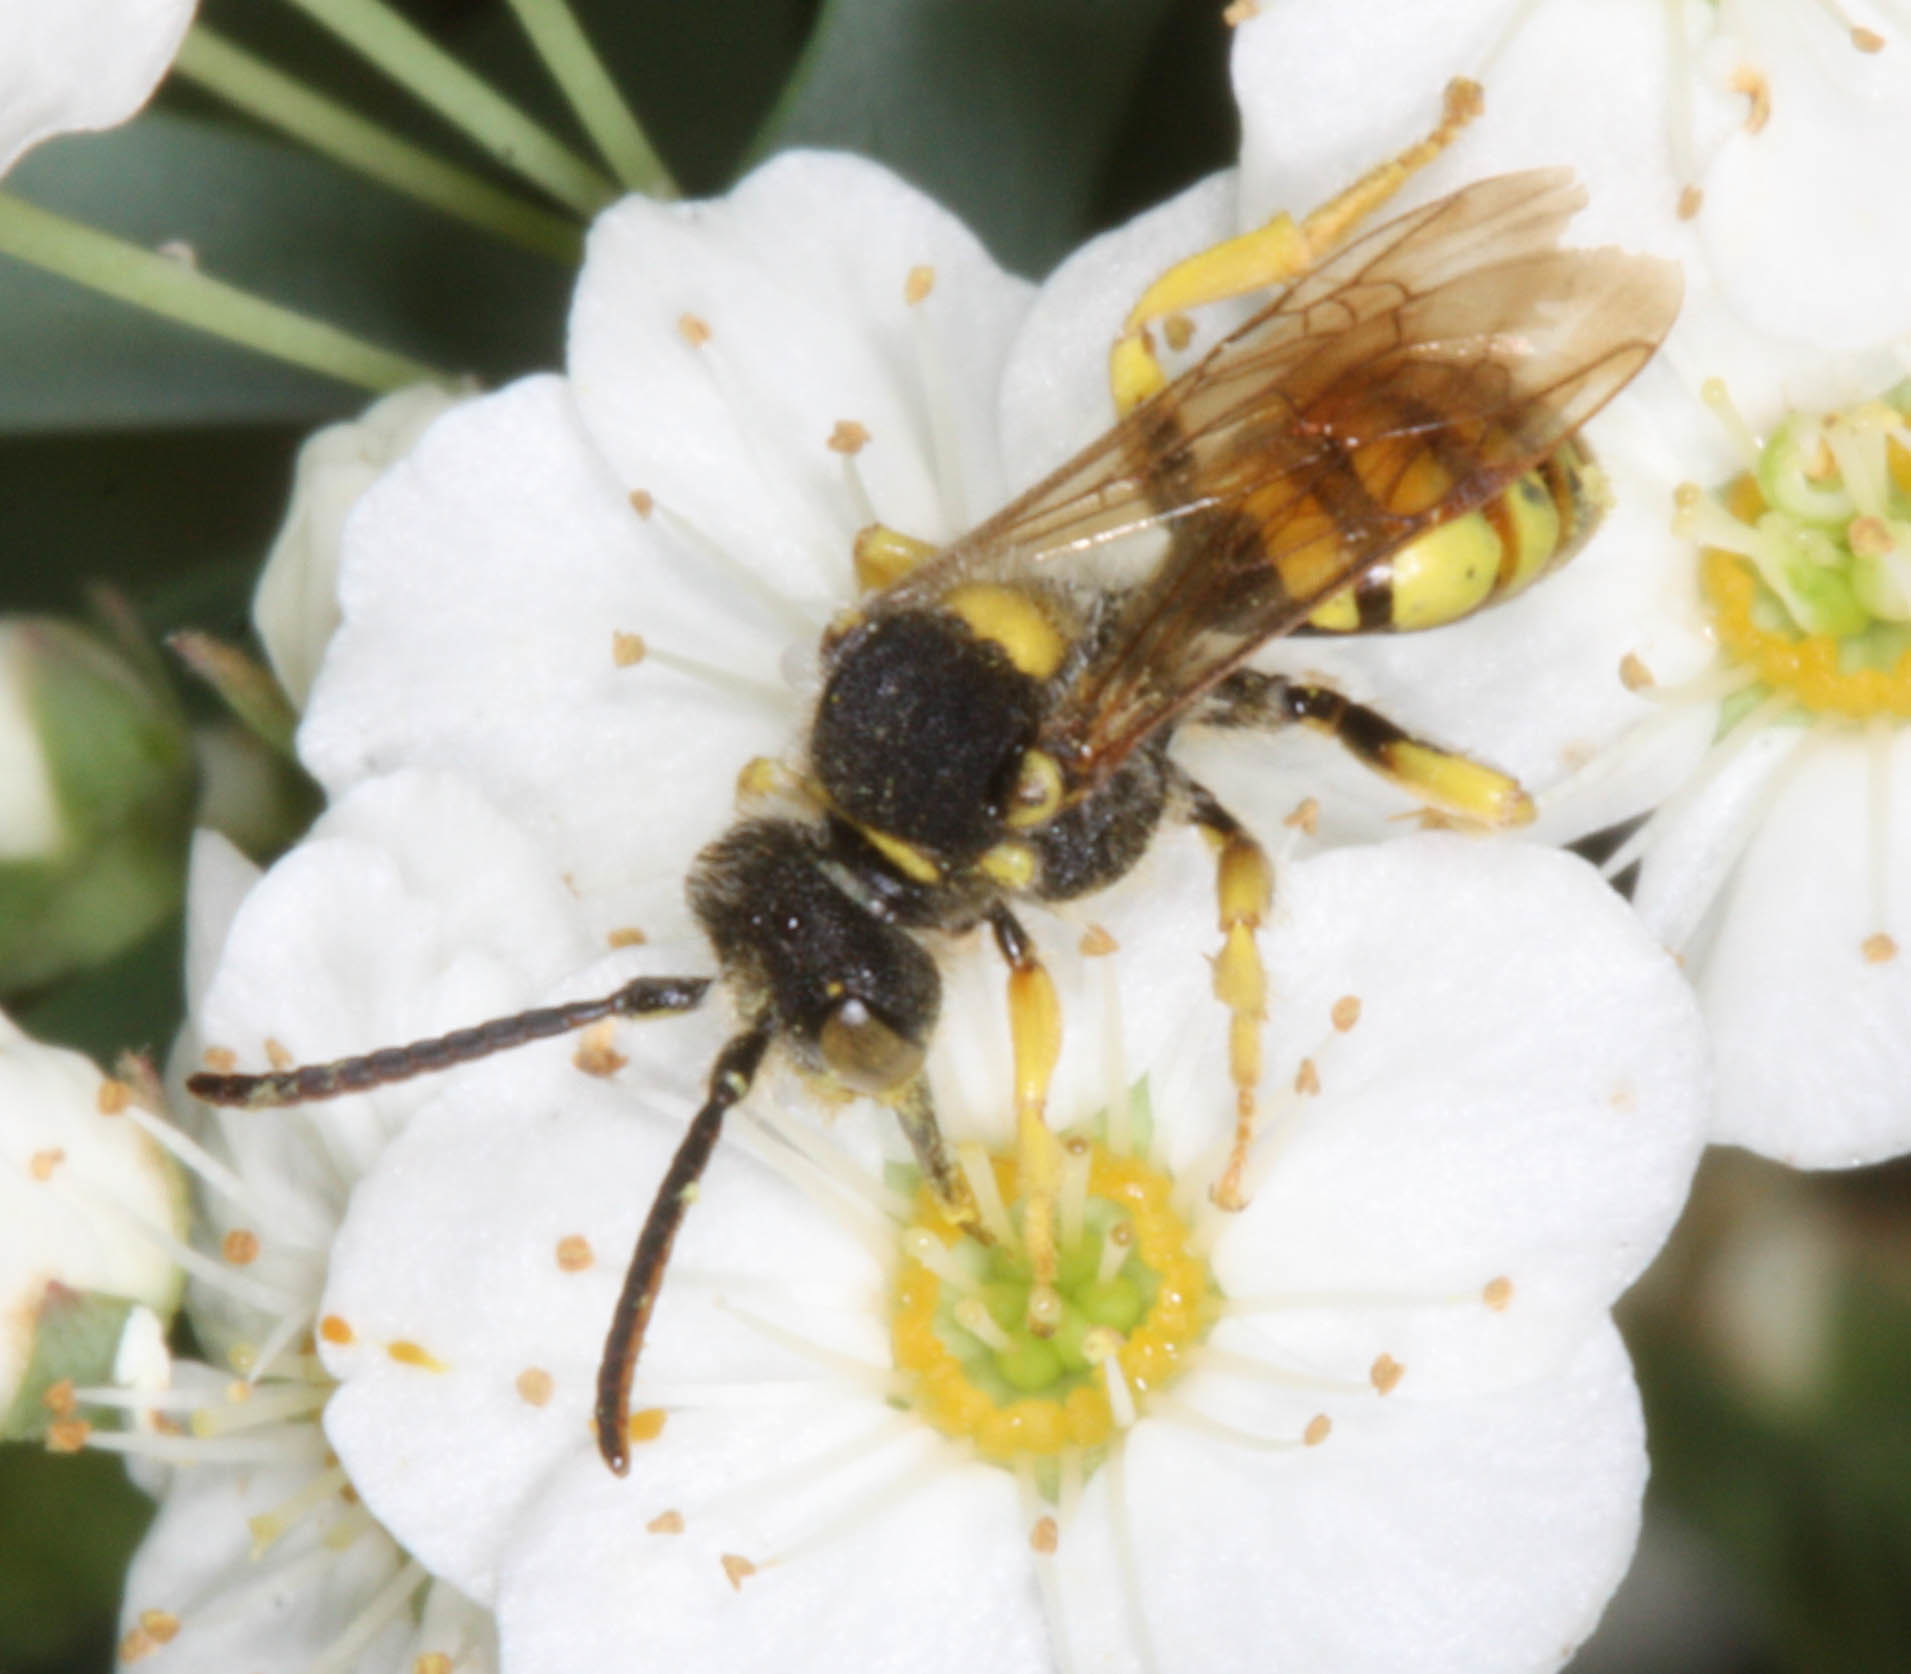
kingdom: Animalia
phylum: Arthropoda
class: Insecta
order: Hymenoptera
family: Apidae
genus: Nomada
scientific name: Nomada
